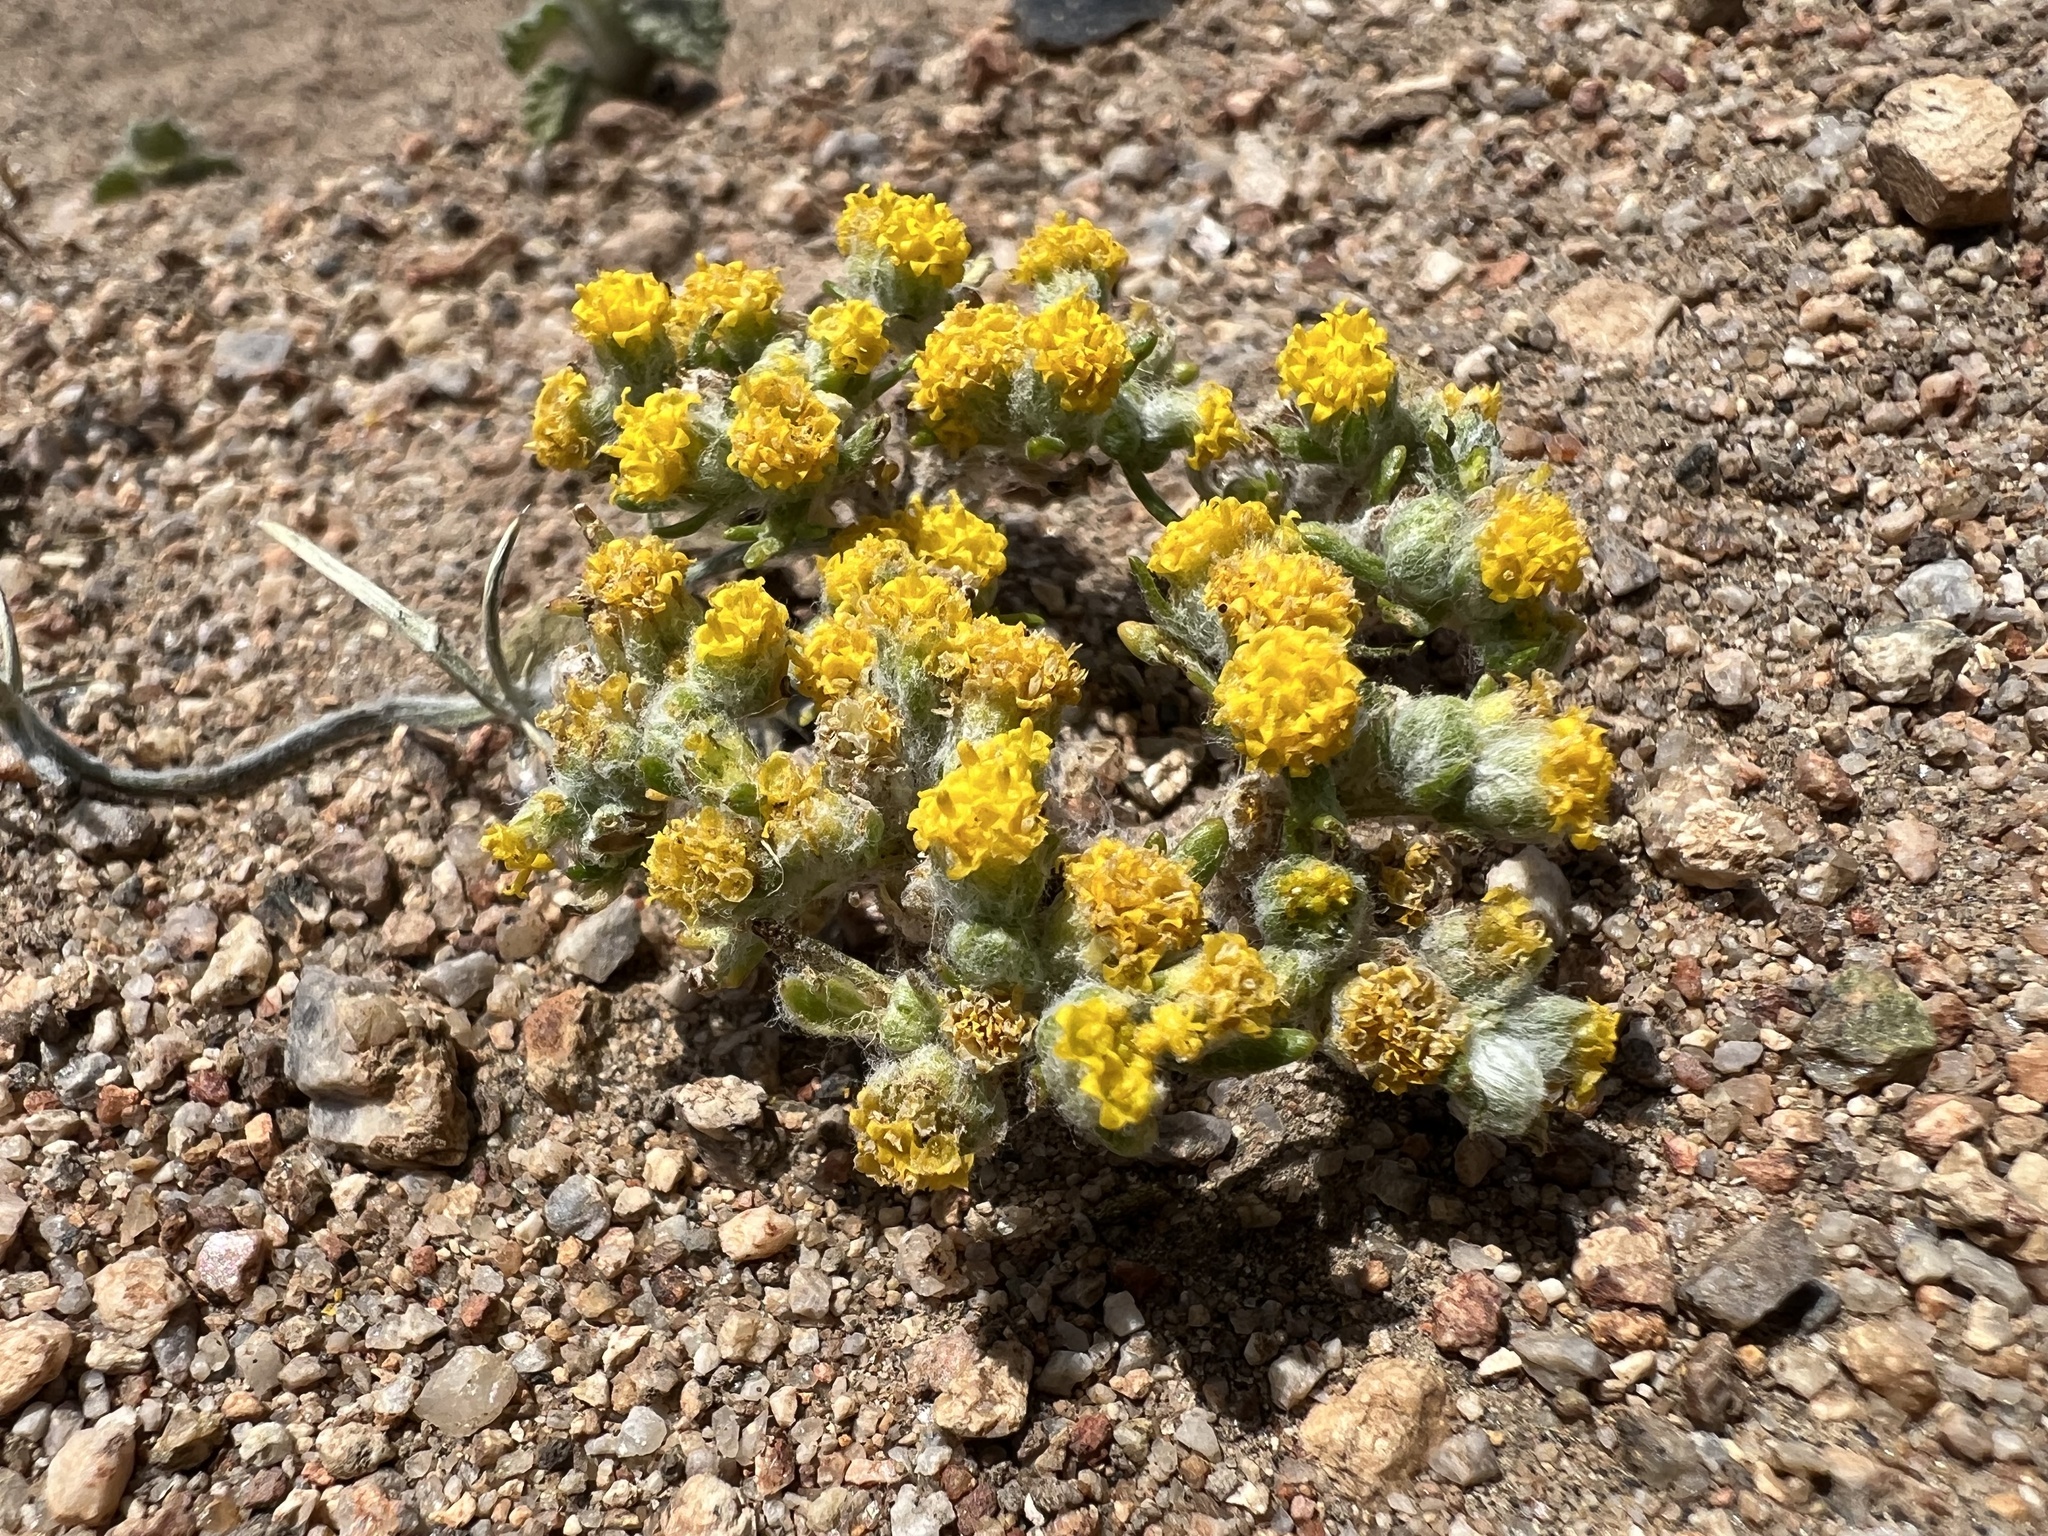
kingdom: Plantae
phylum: Tracheophyta
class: Magnoliopsida
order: Asterales
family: Asteraceae
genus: Eriophyllum
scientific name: Eriophyllum pringlei
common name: Pringle's woolly-sunflower
